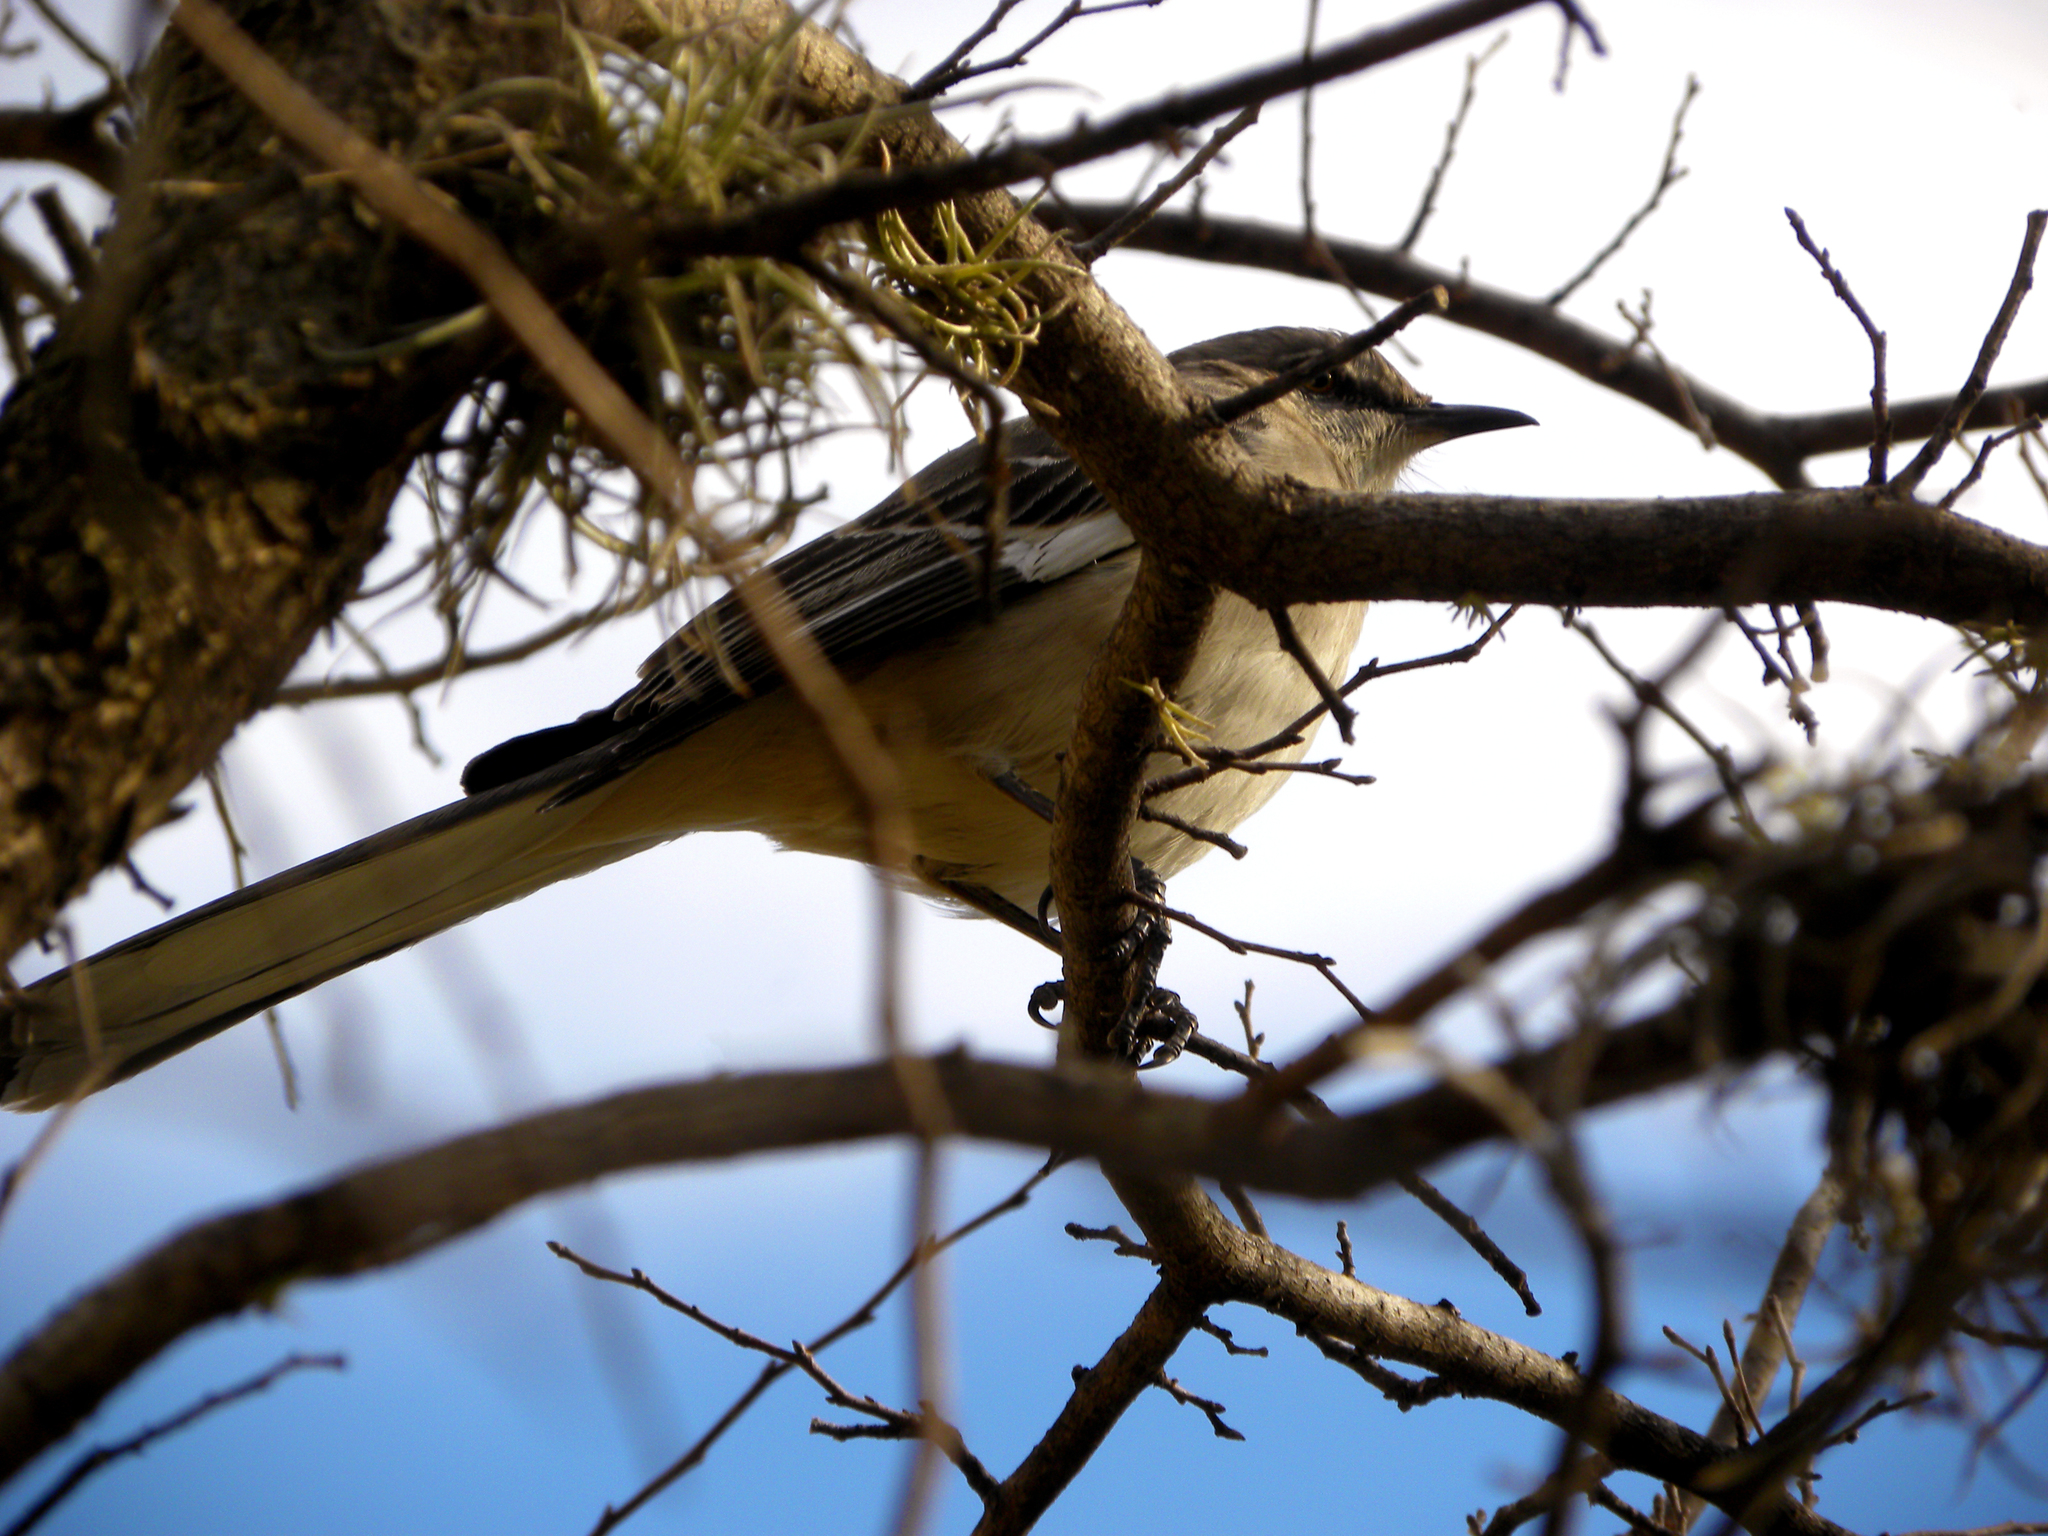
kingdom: Animalia
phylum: Chordata
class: Aves
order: Passeriformes
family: Mimidae
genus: Mimus
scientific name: Mimus polyglottos
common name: Northern mockingbird
